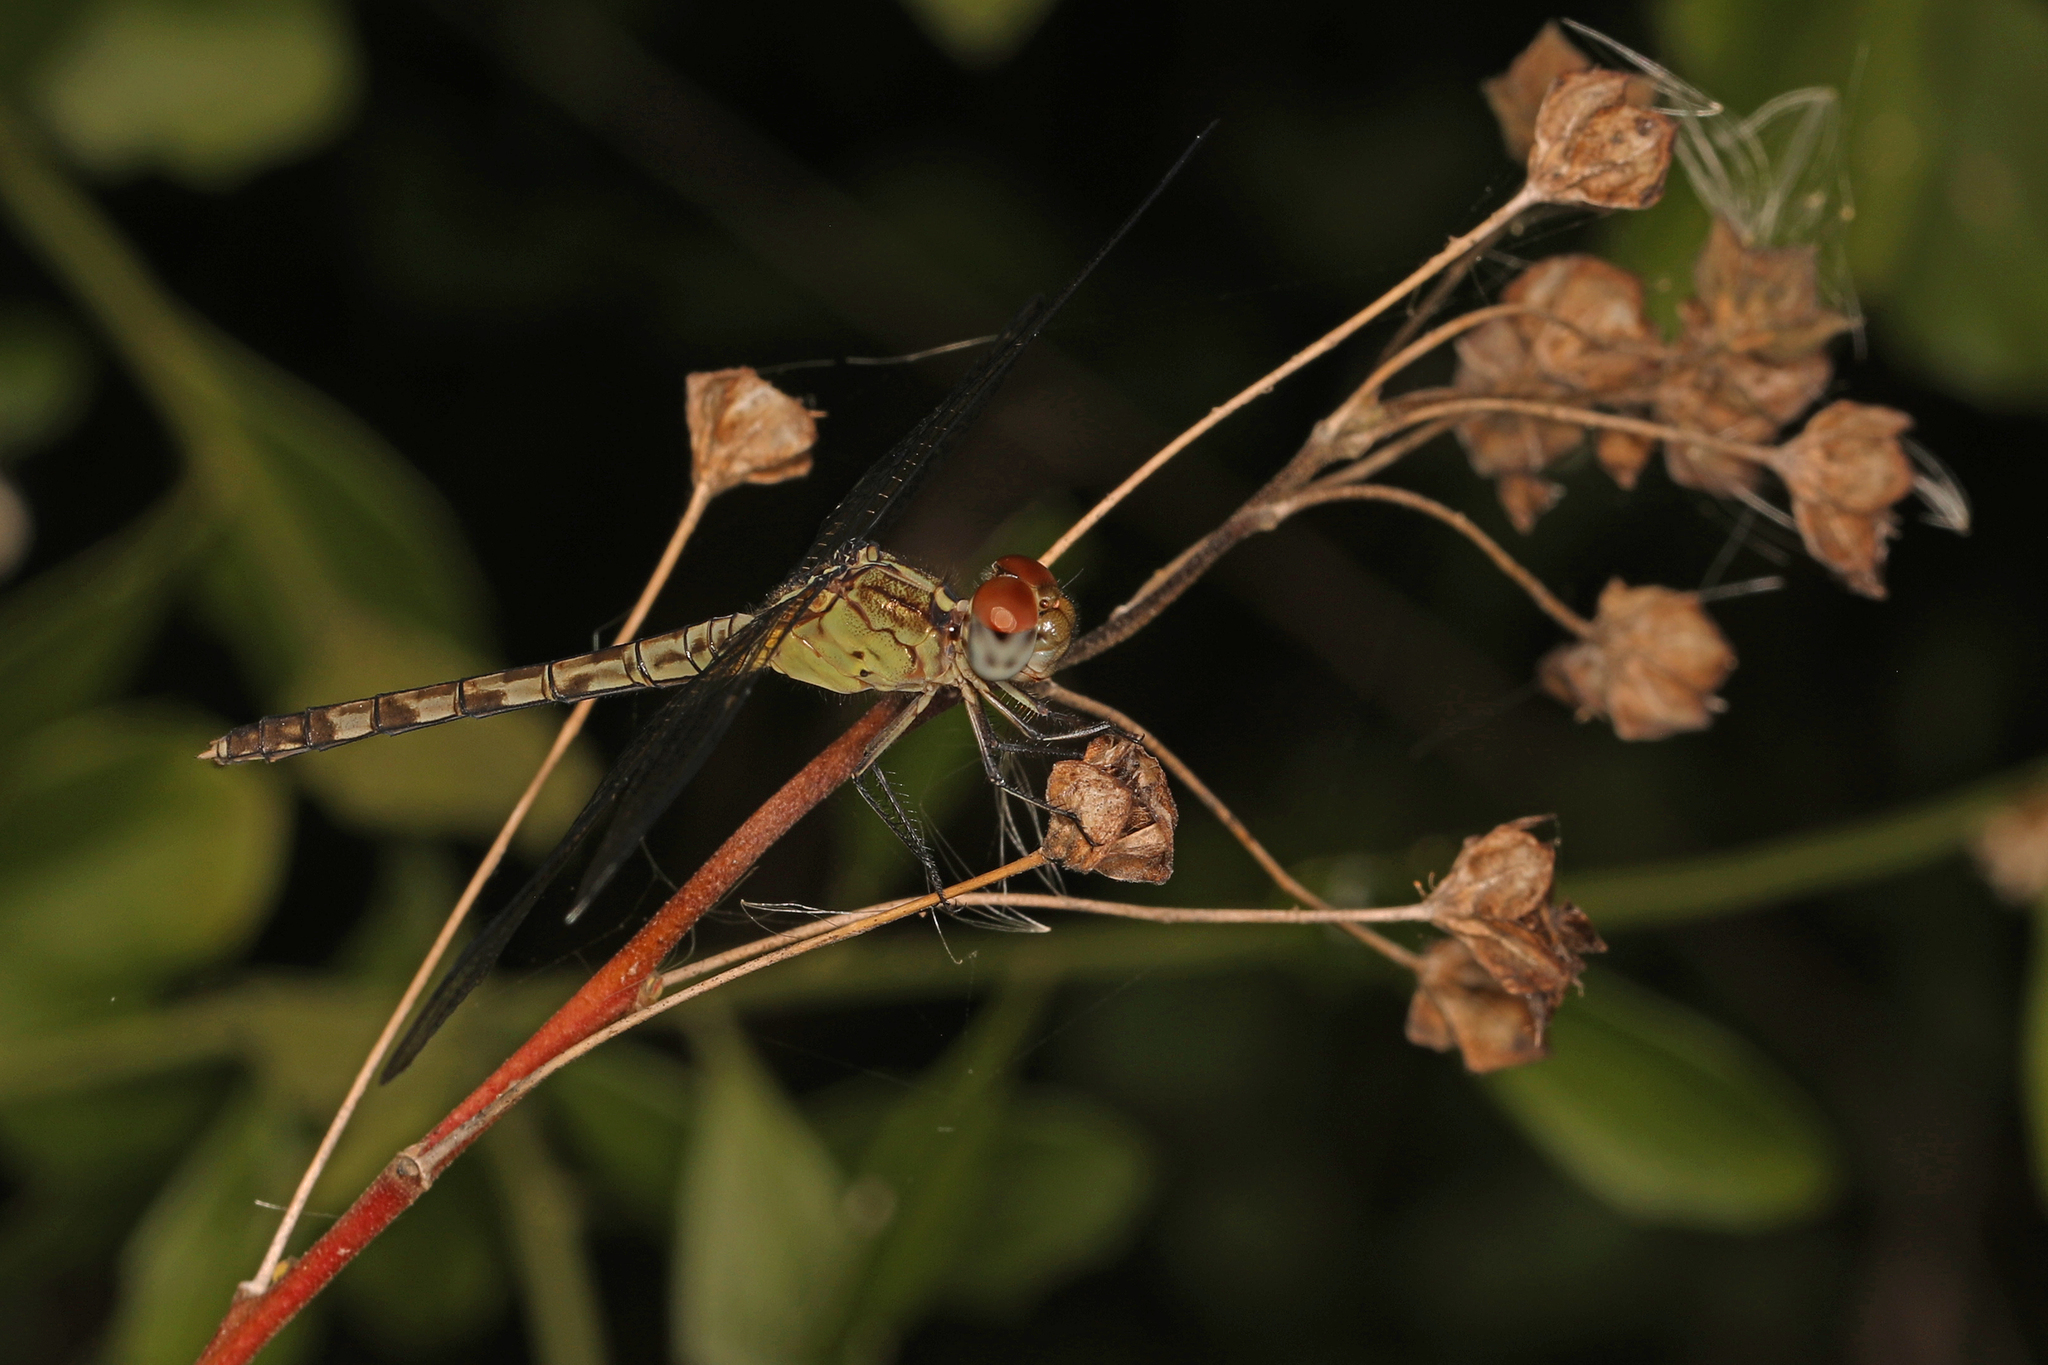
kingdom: Animalia
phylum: Arthropoda
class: Insecta
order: Odonata
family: Libellulidae
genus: Erythrodiplax
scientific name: Erythrodiplax umbrata
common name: Band-winged dragonlet
